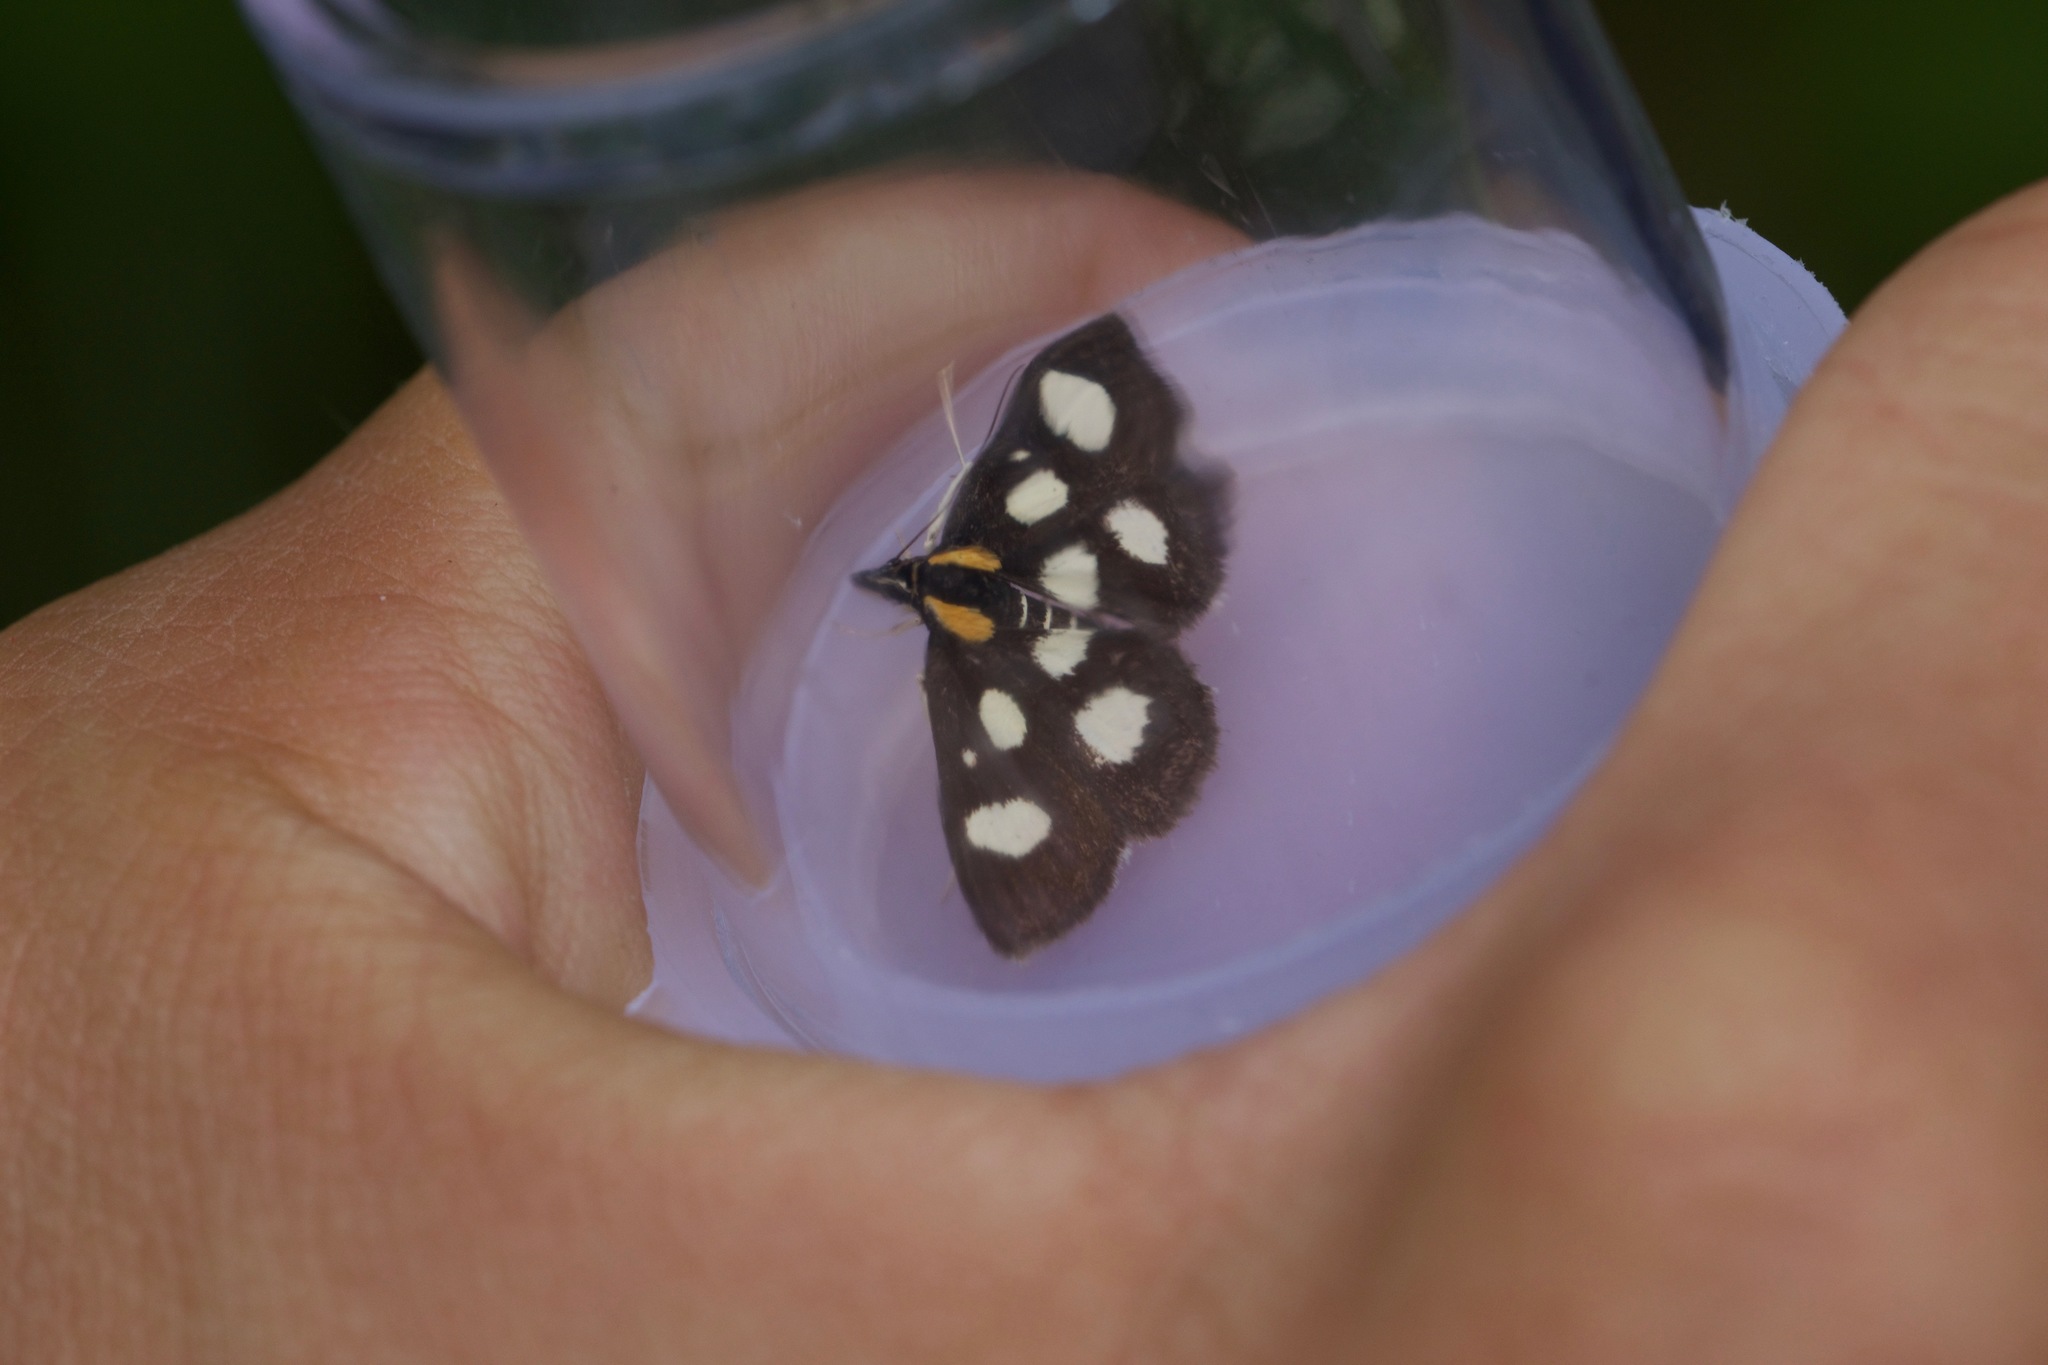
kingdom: Animalia
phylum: Arthropoda
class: Insecta
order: Lepidoptera
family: Crambidae
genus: Anania
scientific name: Anania funebris
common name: White-spotted sable moth
